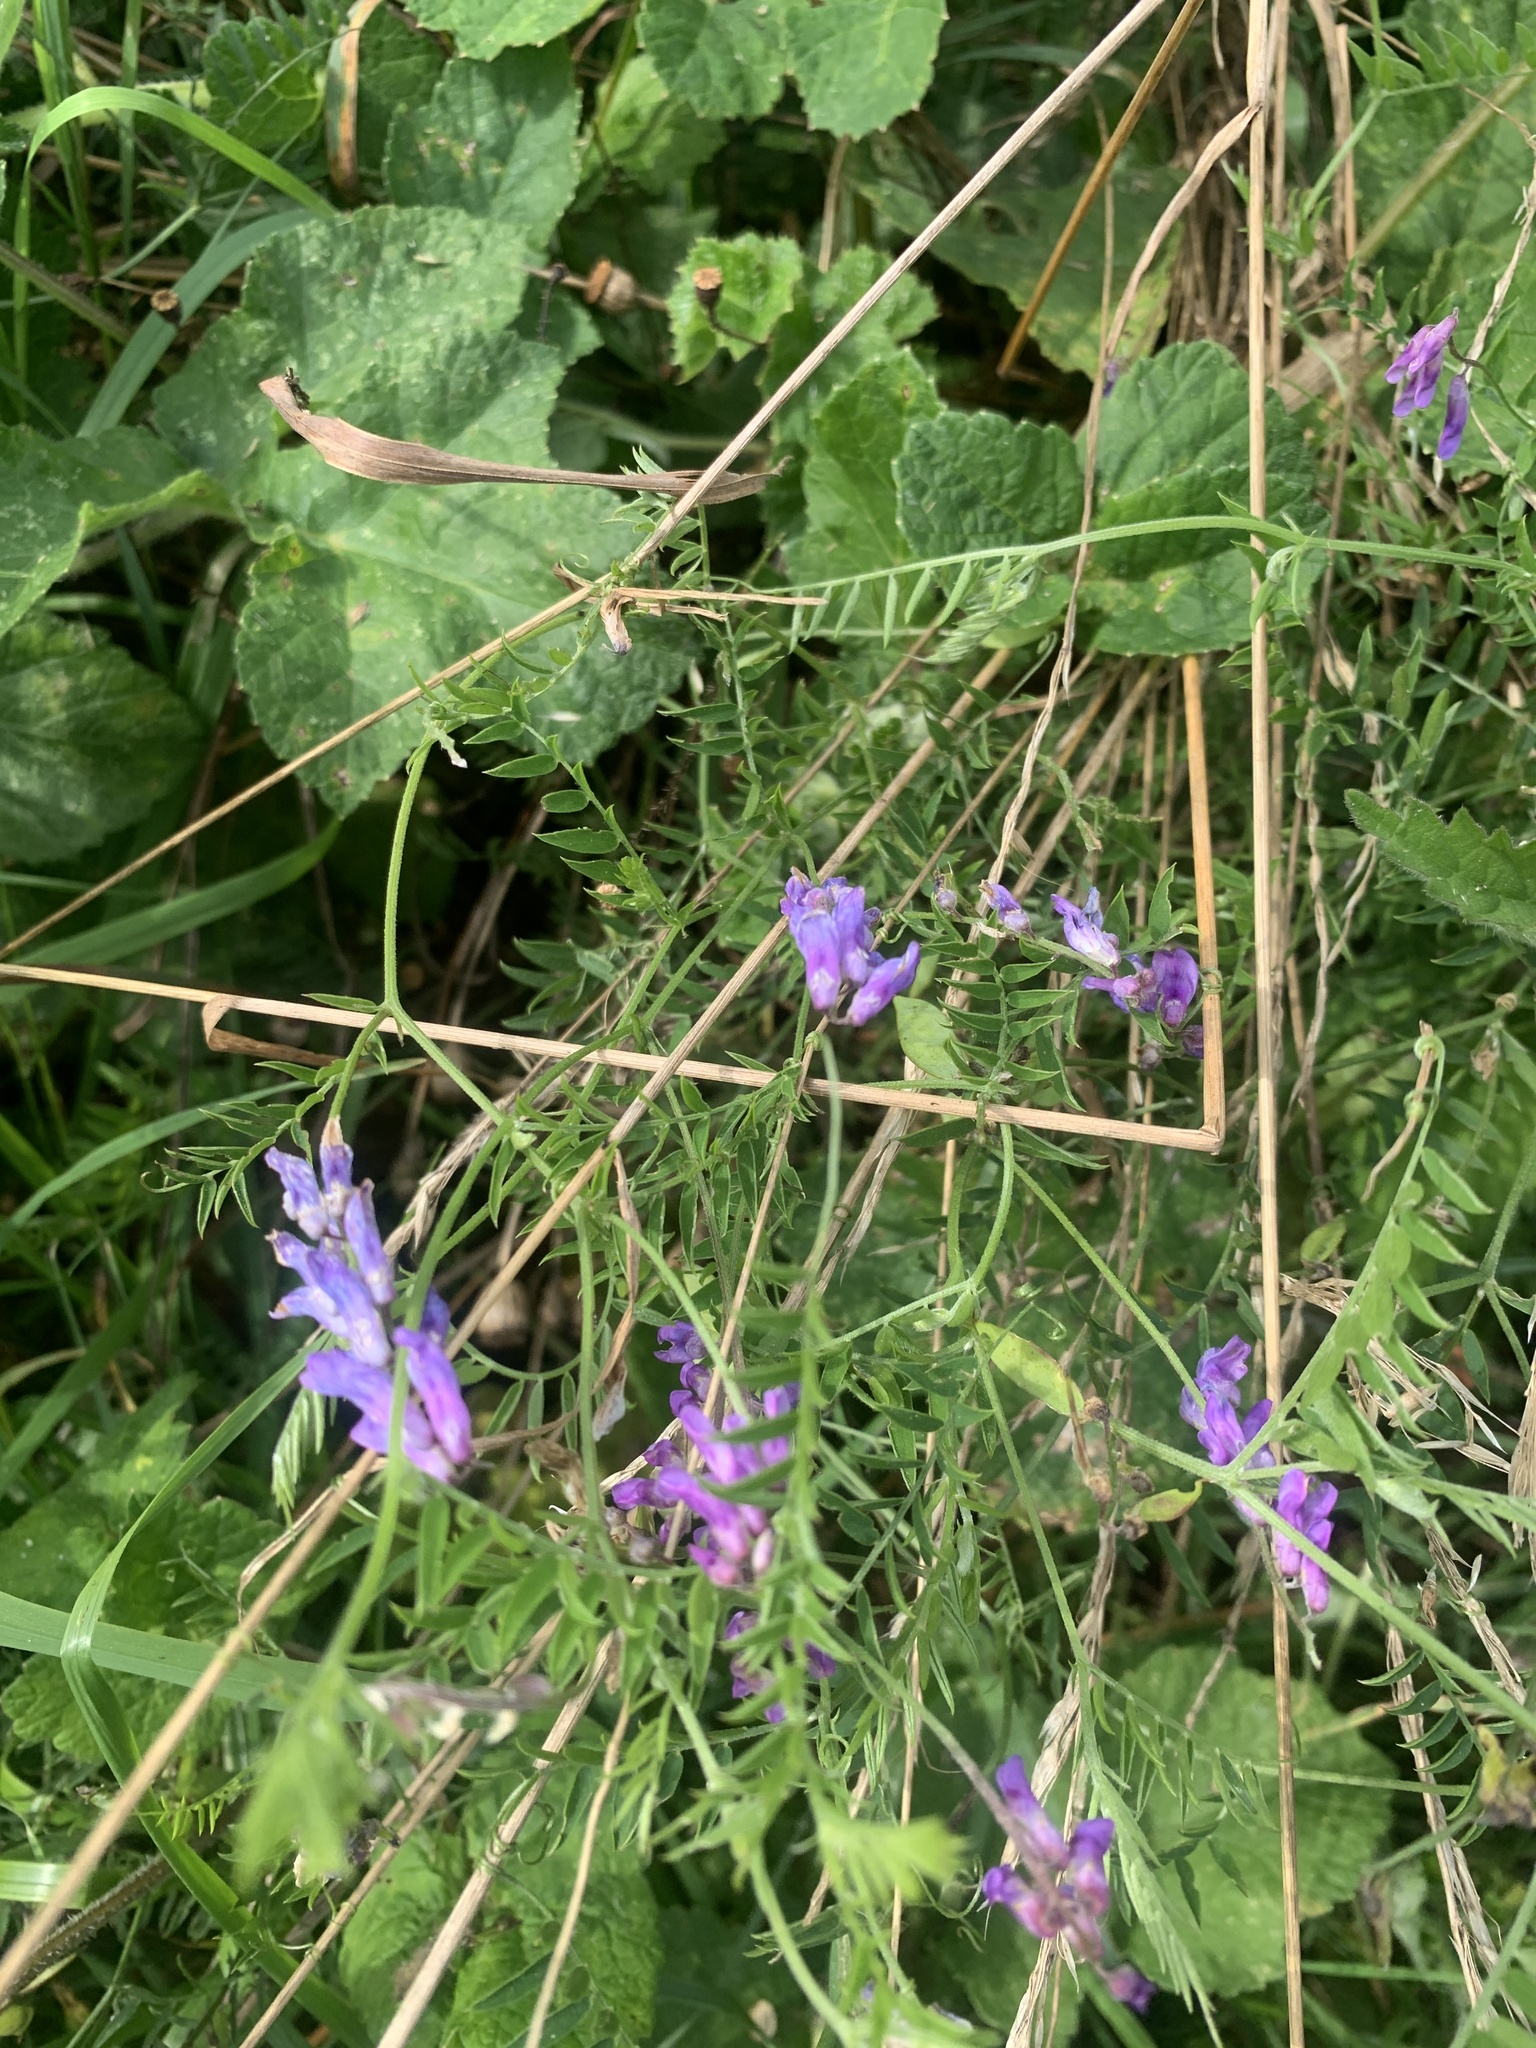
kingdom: Plantae
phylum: Tracheophyta
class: Magnoliopsida
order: Fabales
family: Fabaceae
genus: Vicia
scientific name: Vicia cracca
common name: Bird vetch
